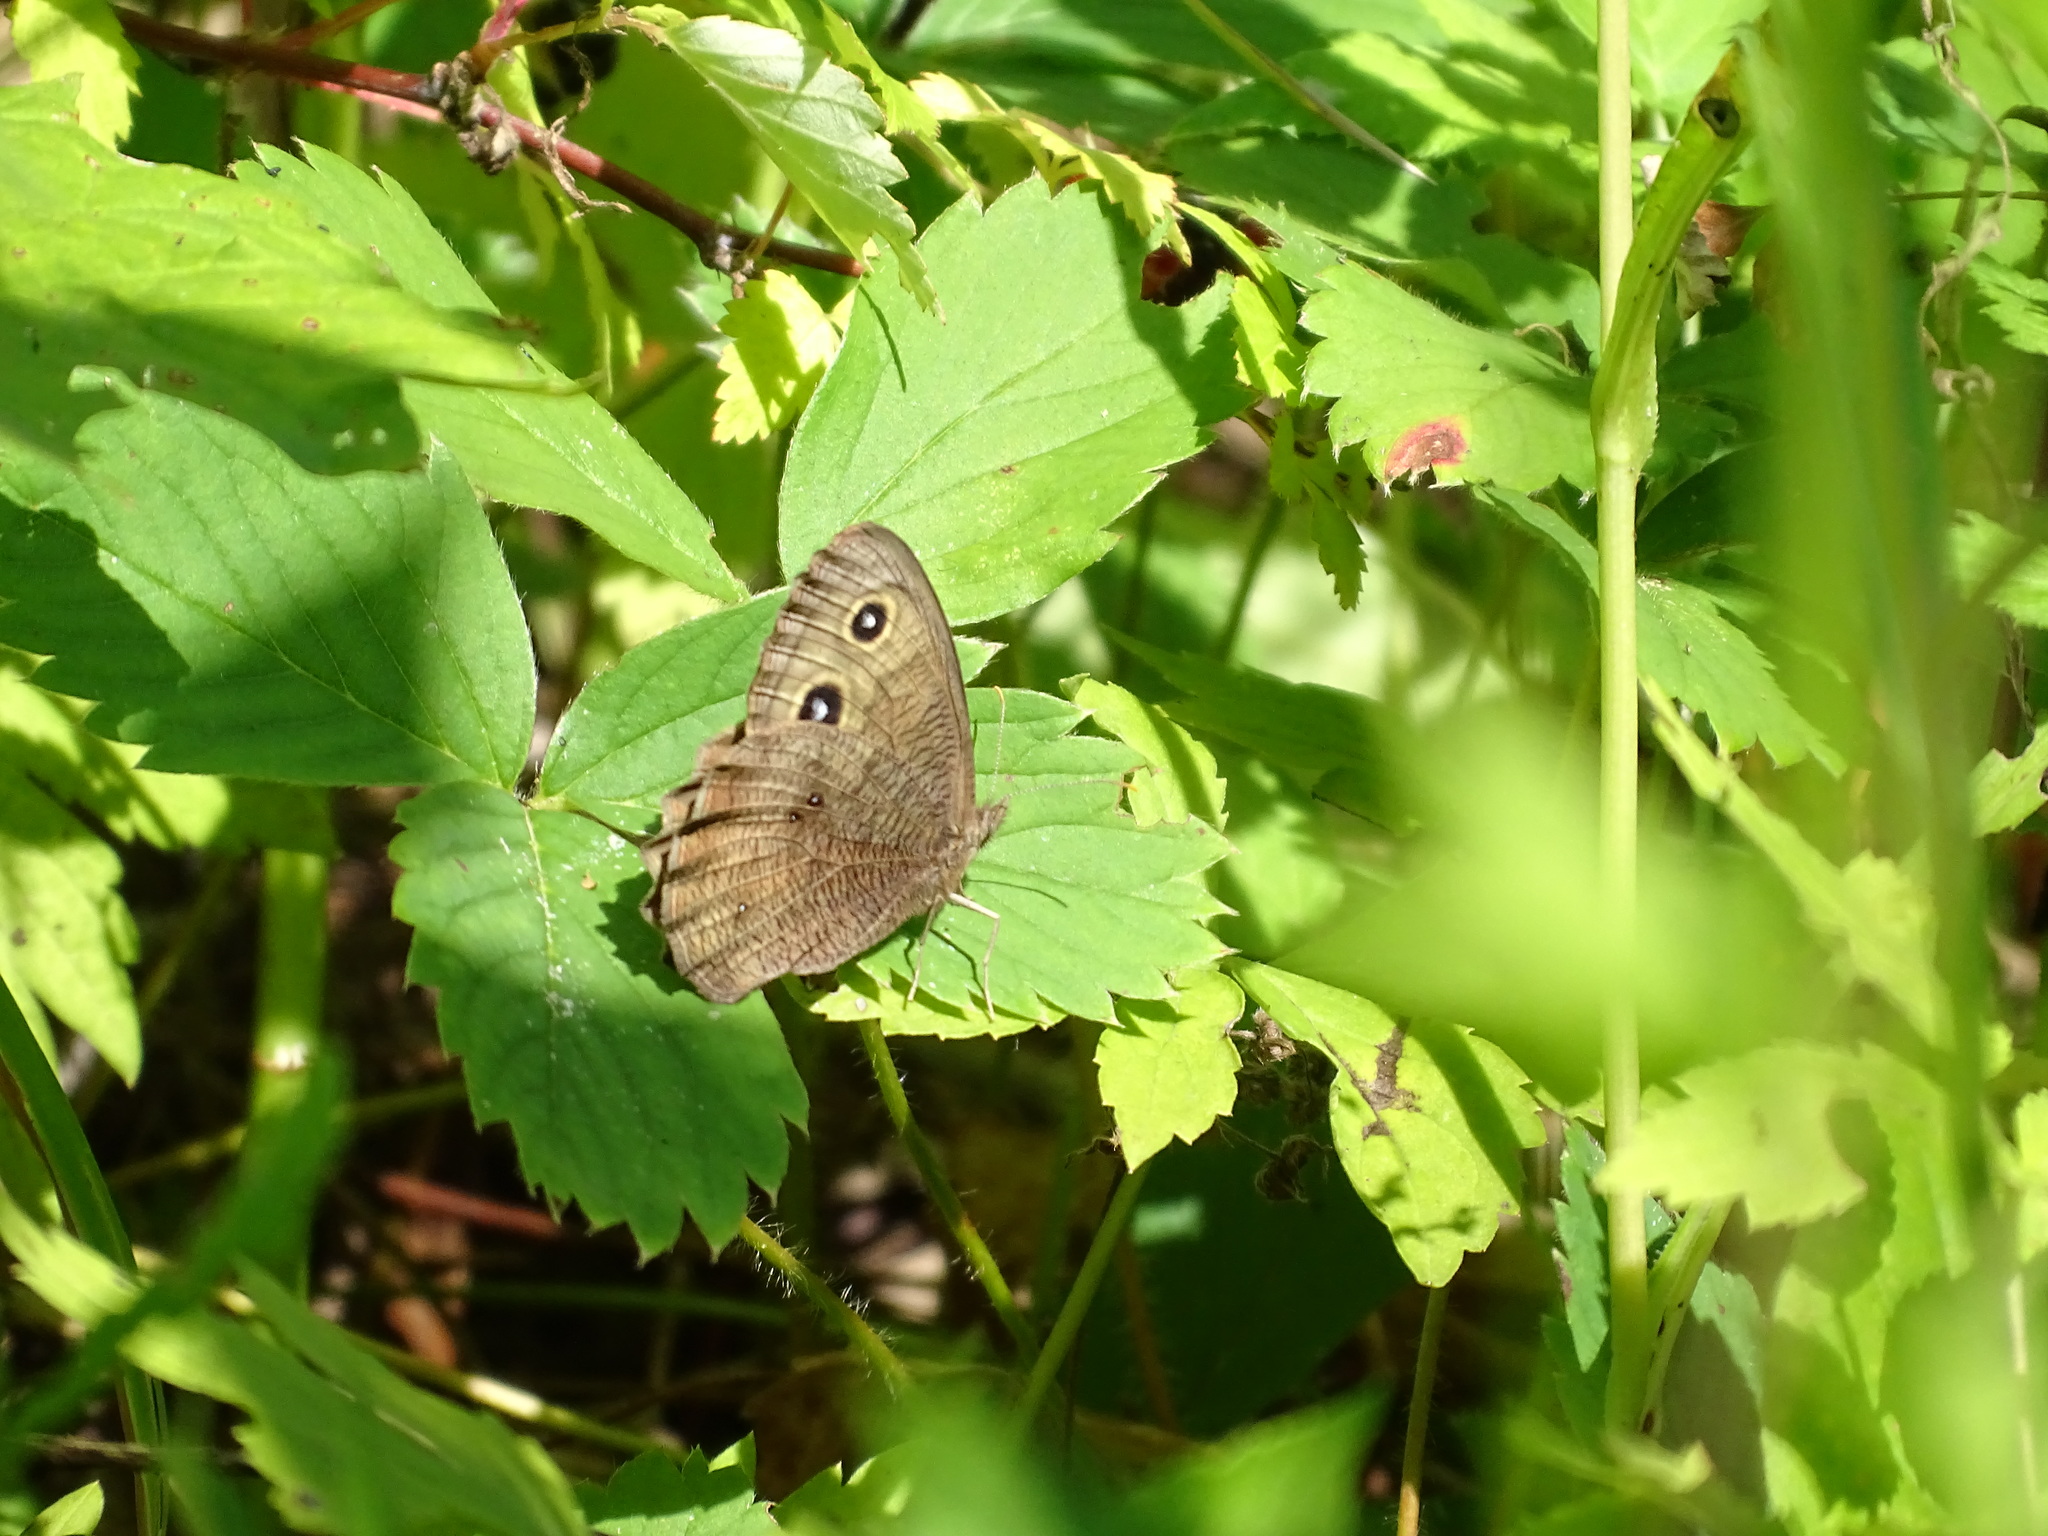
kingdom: Animalia
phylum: Arthropoda
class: Insecta
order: Lepidoptera
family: Nymphalidae
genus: Cercyonis
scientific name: Cercyonis pegala
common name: Common wood-nymph
